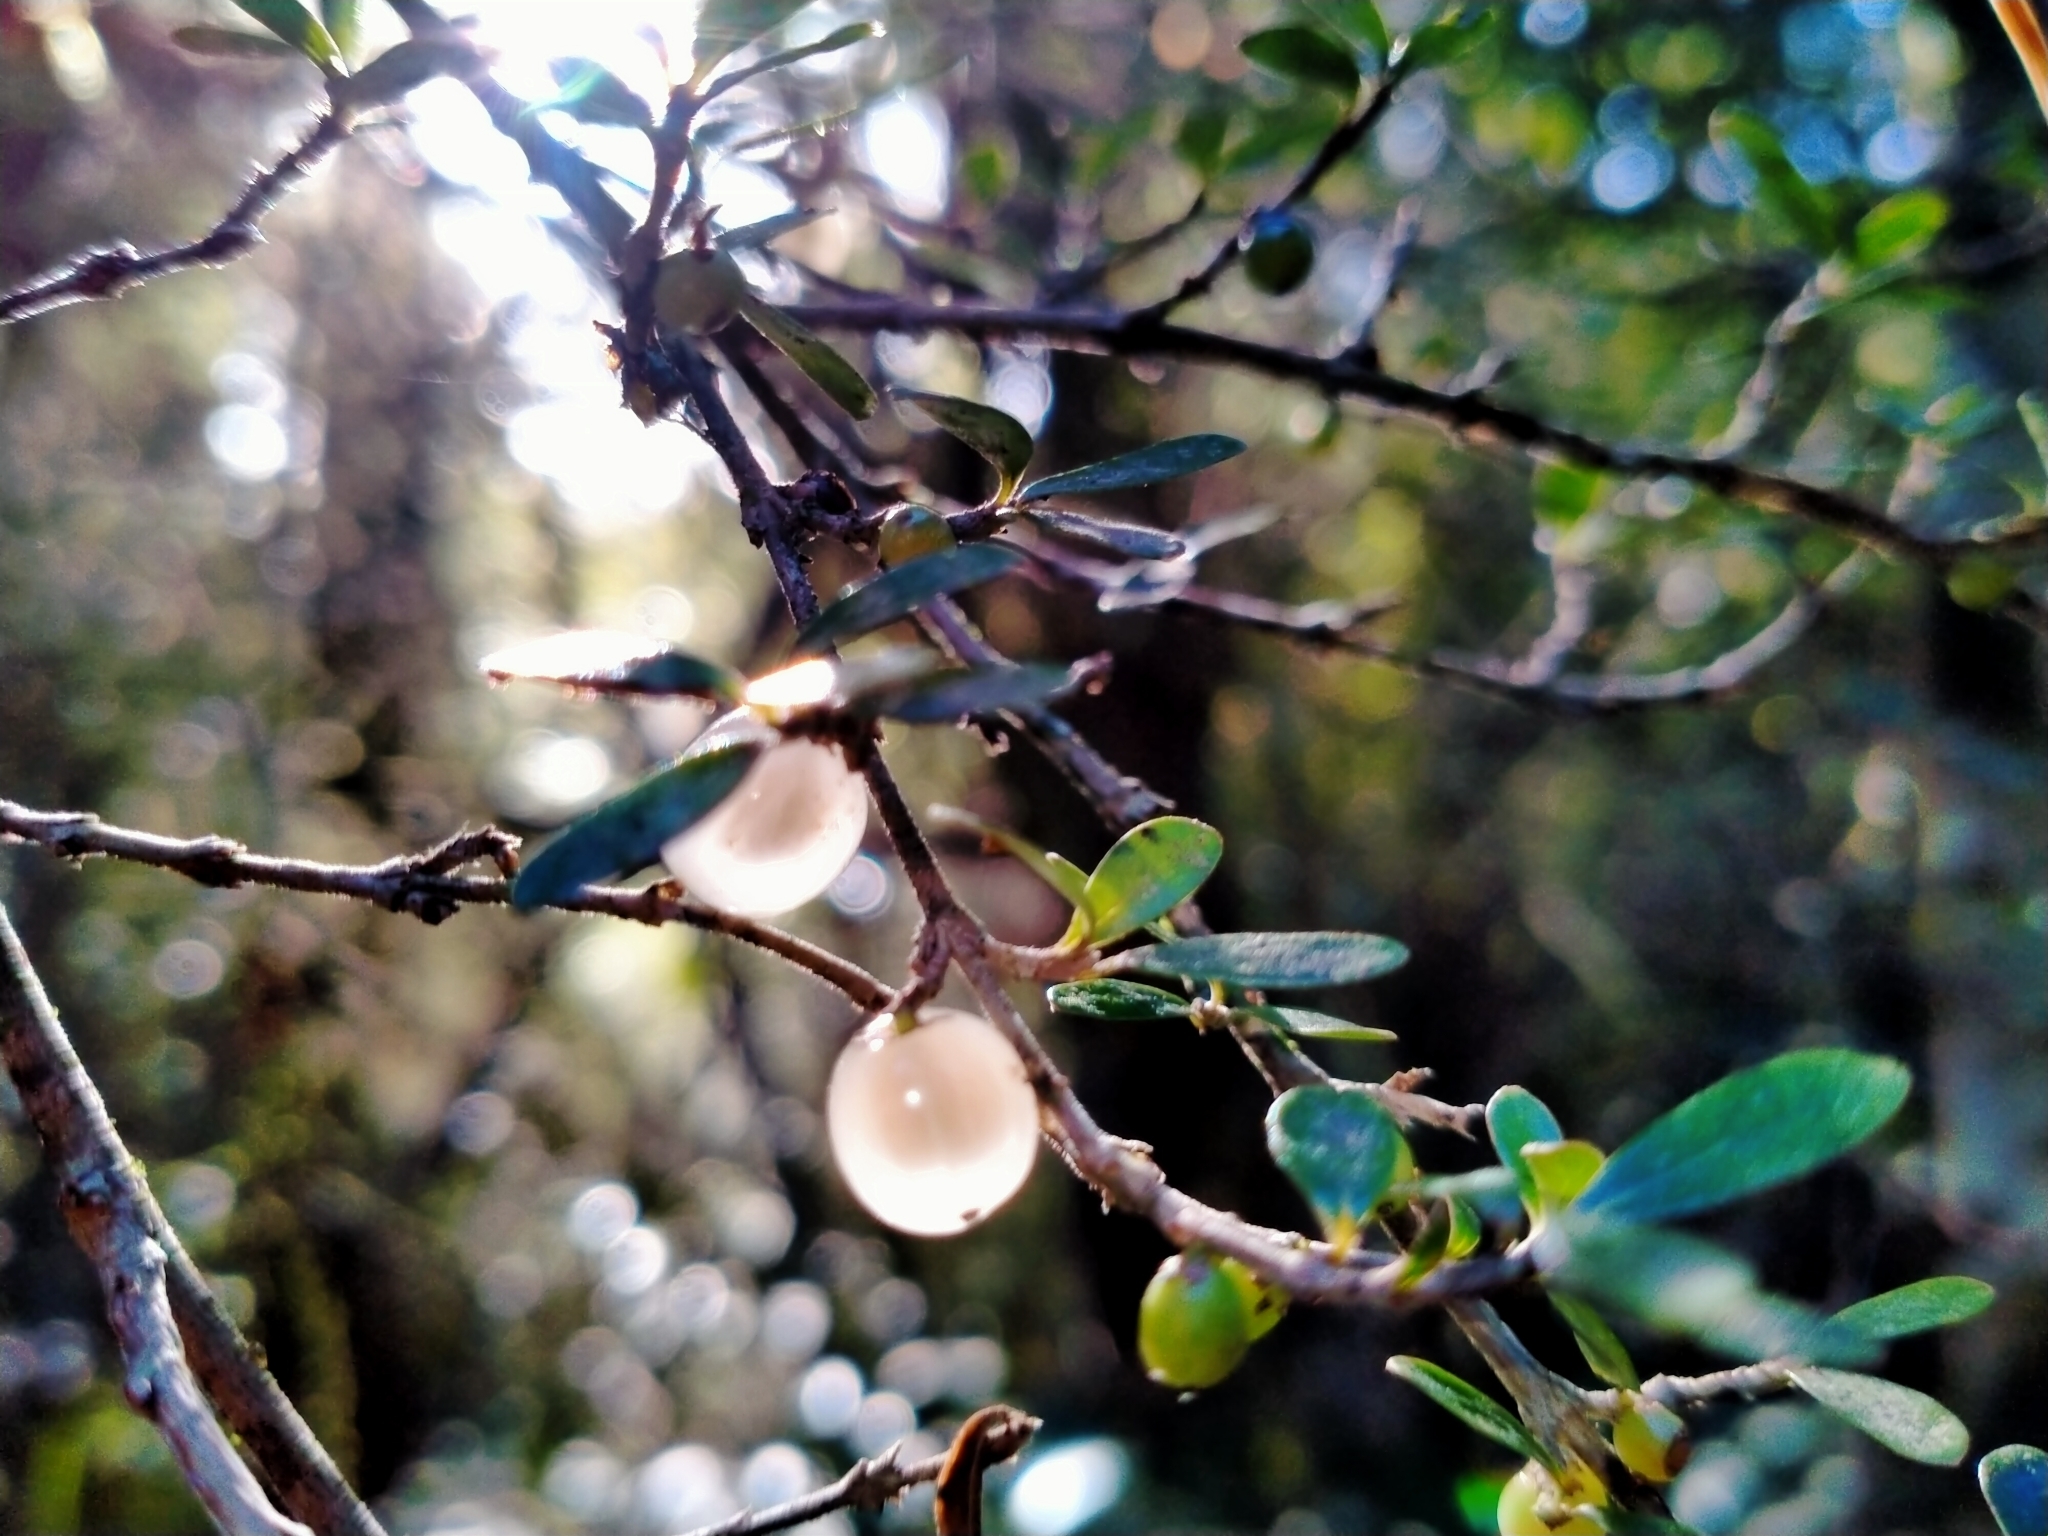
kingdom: Plantae
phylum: Tracheophyta
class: Magnoliopsida
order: Gentianales
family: Rubiaceae
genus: Coprosma
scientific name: Coprosma dumosa
